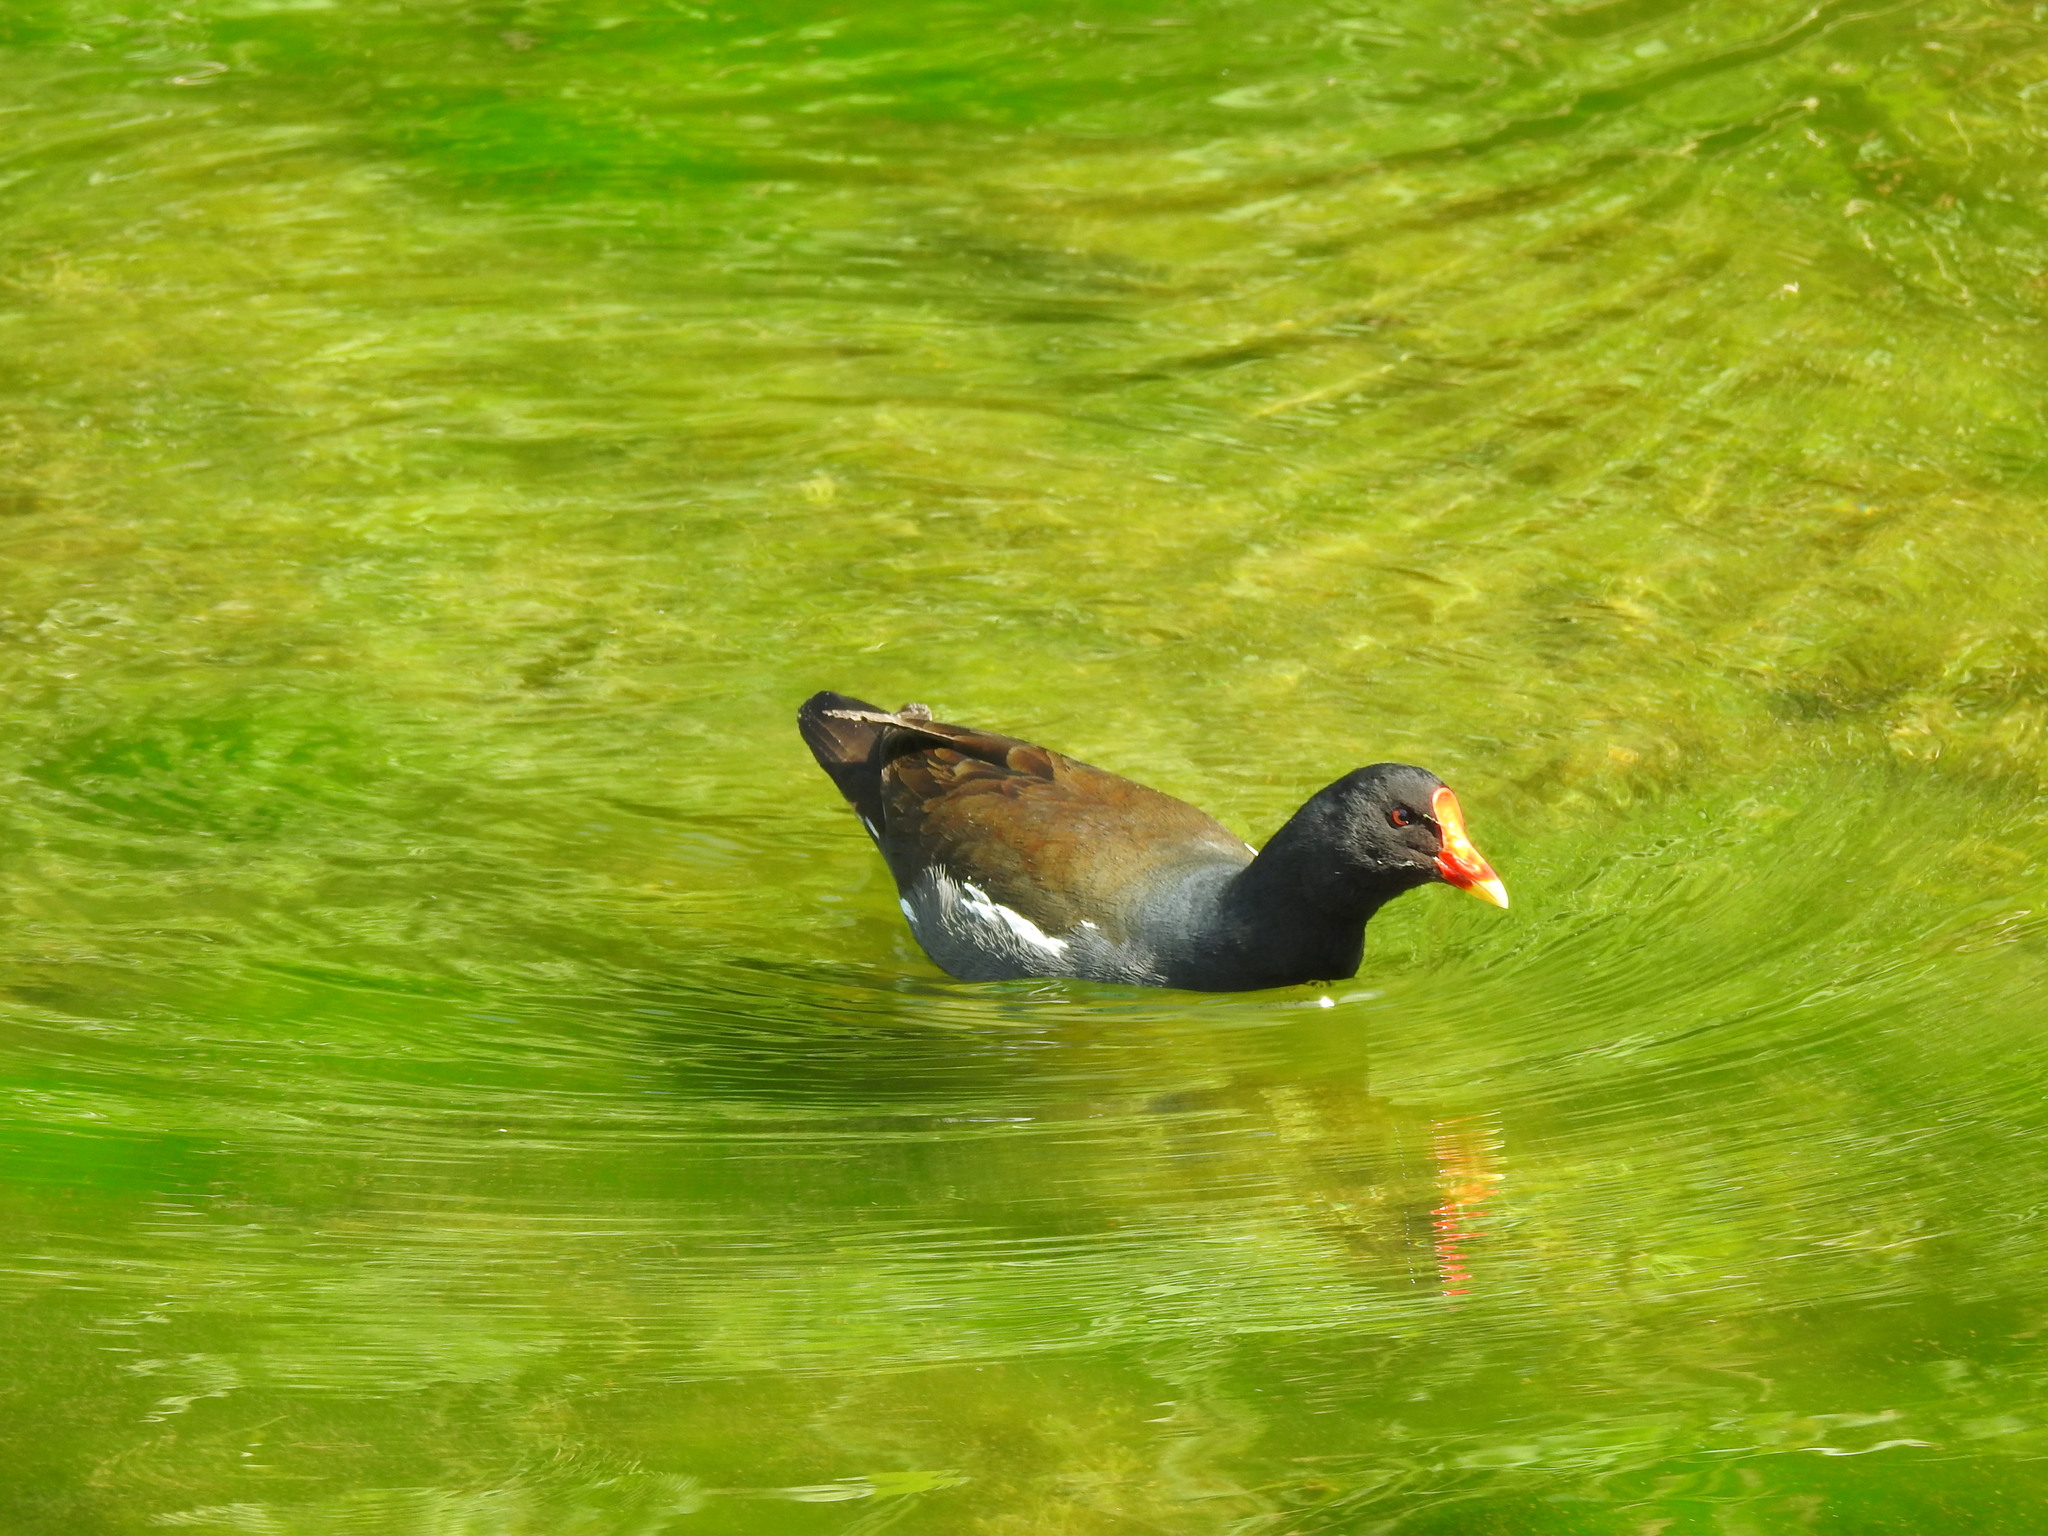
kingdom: Animalia
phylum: Chordata
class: Aves
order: Gruiformes
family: Rallidae
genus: Gallinula
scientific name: Gallinula chloropus
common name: Common moorhen
